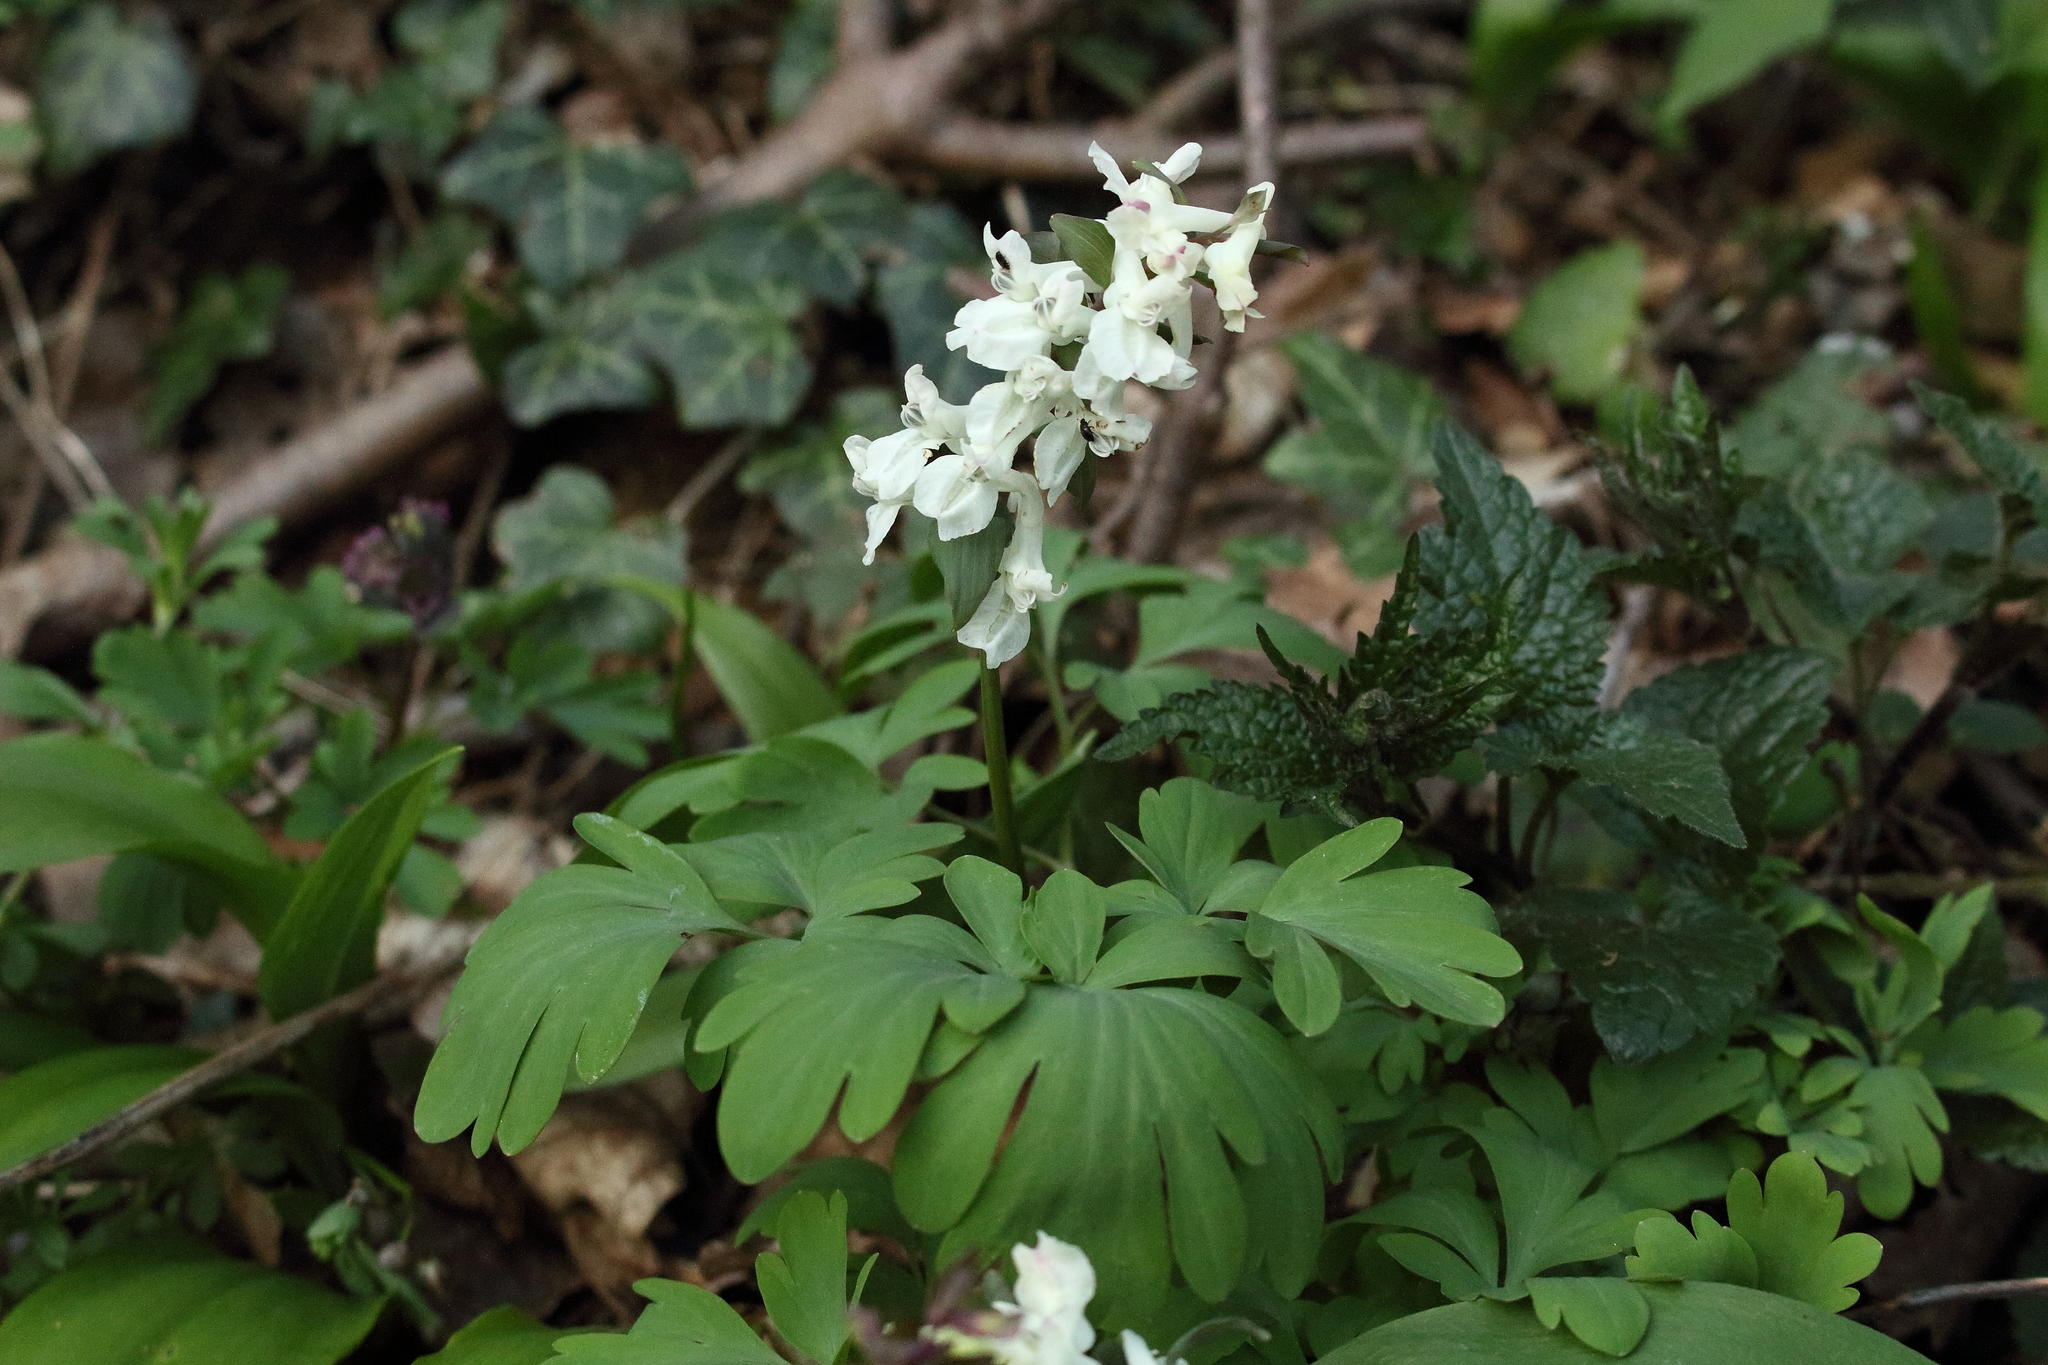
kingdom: Plantae
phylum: Tracheophyta
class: Magnoliopsida
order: Ranunculales
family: Papaveraceae
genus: Corydalis
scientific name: Corydalis cava
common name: Hollowroot
